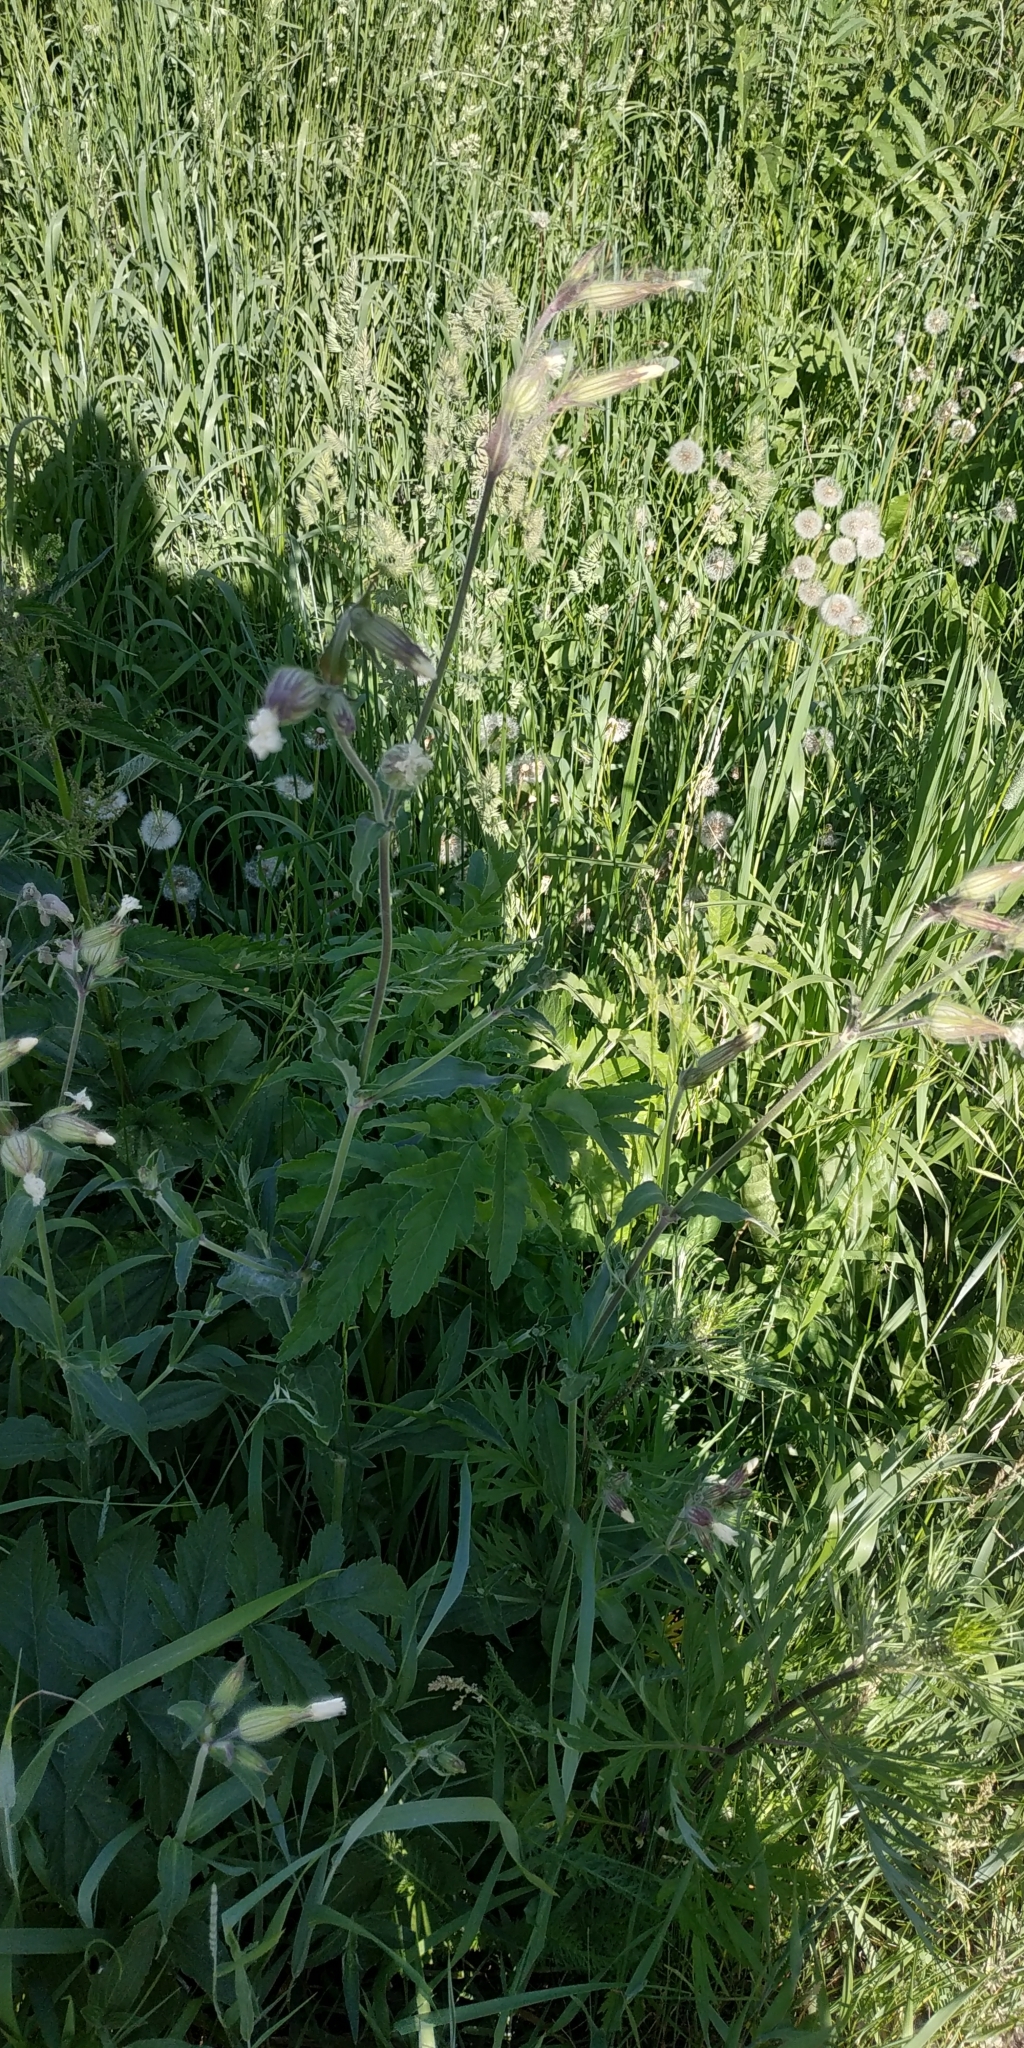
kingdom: Plantae
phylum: Tracheophyta
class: Magnoliopsida
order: Caryophyllales
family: Caryophyllaceae
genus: Silene
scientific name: Silene latifolia
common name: White campion
